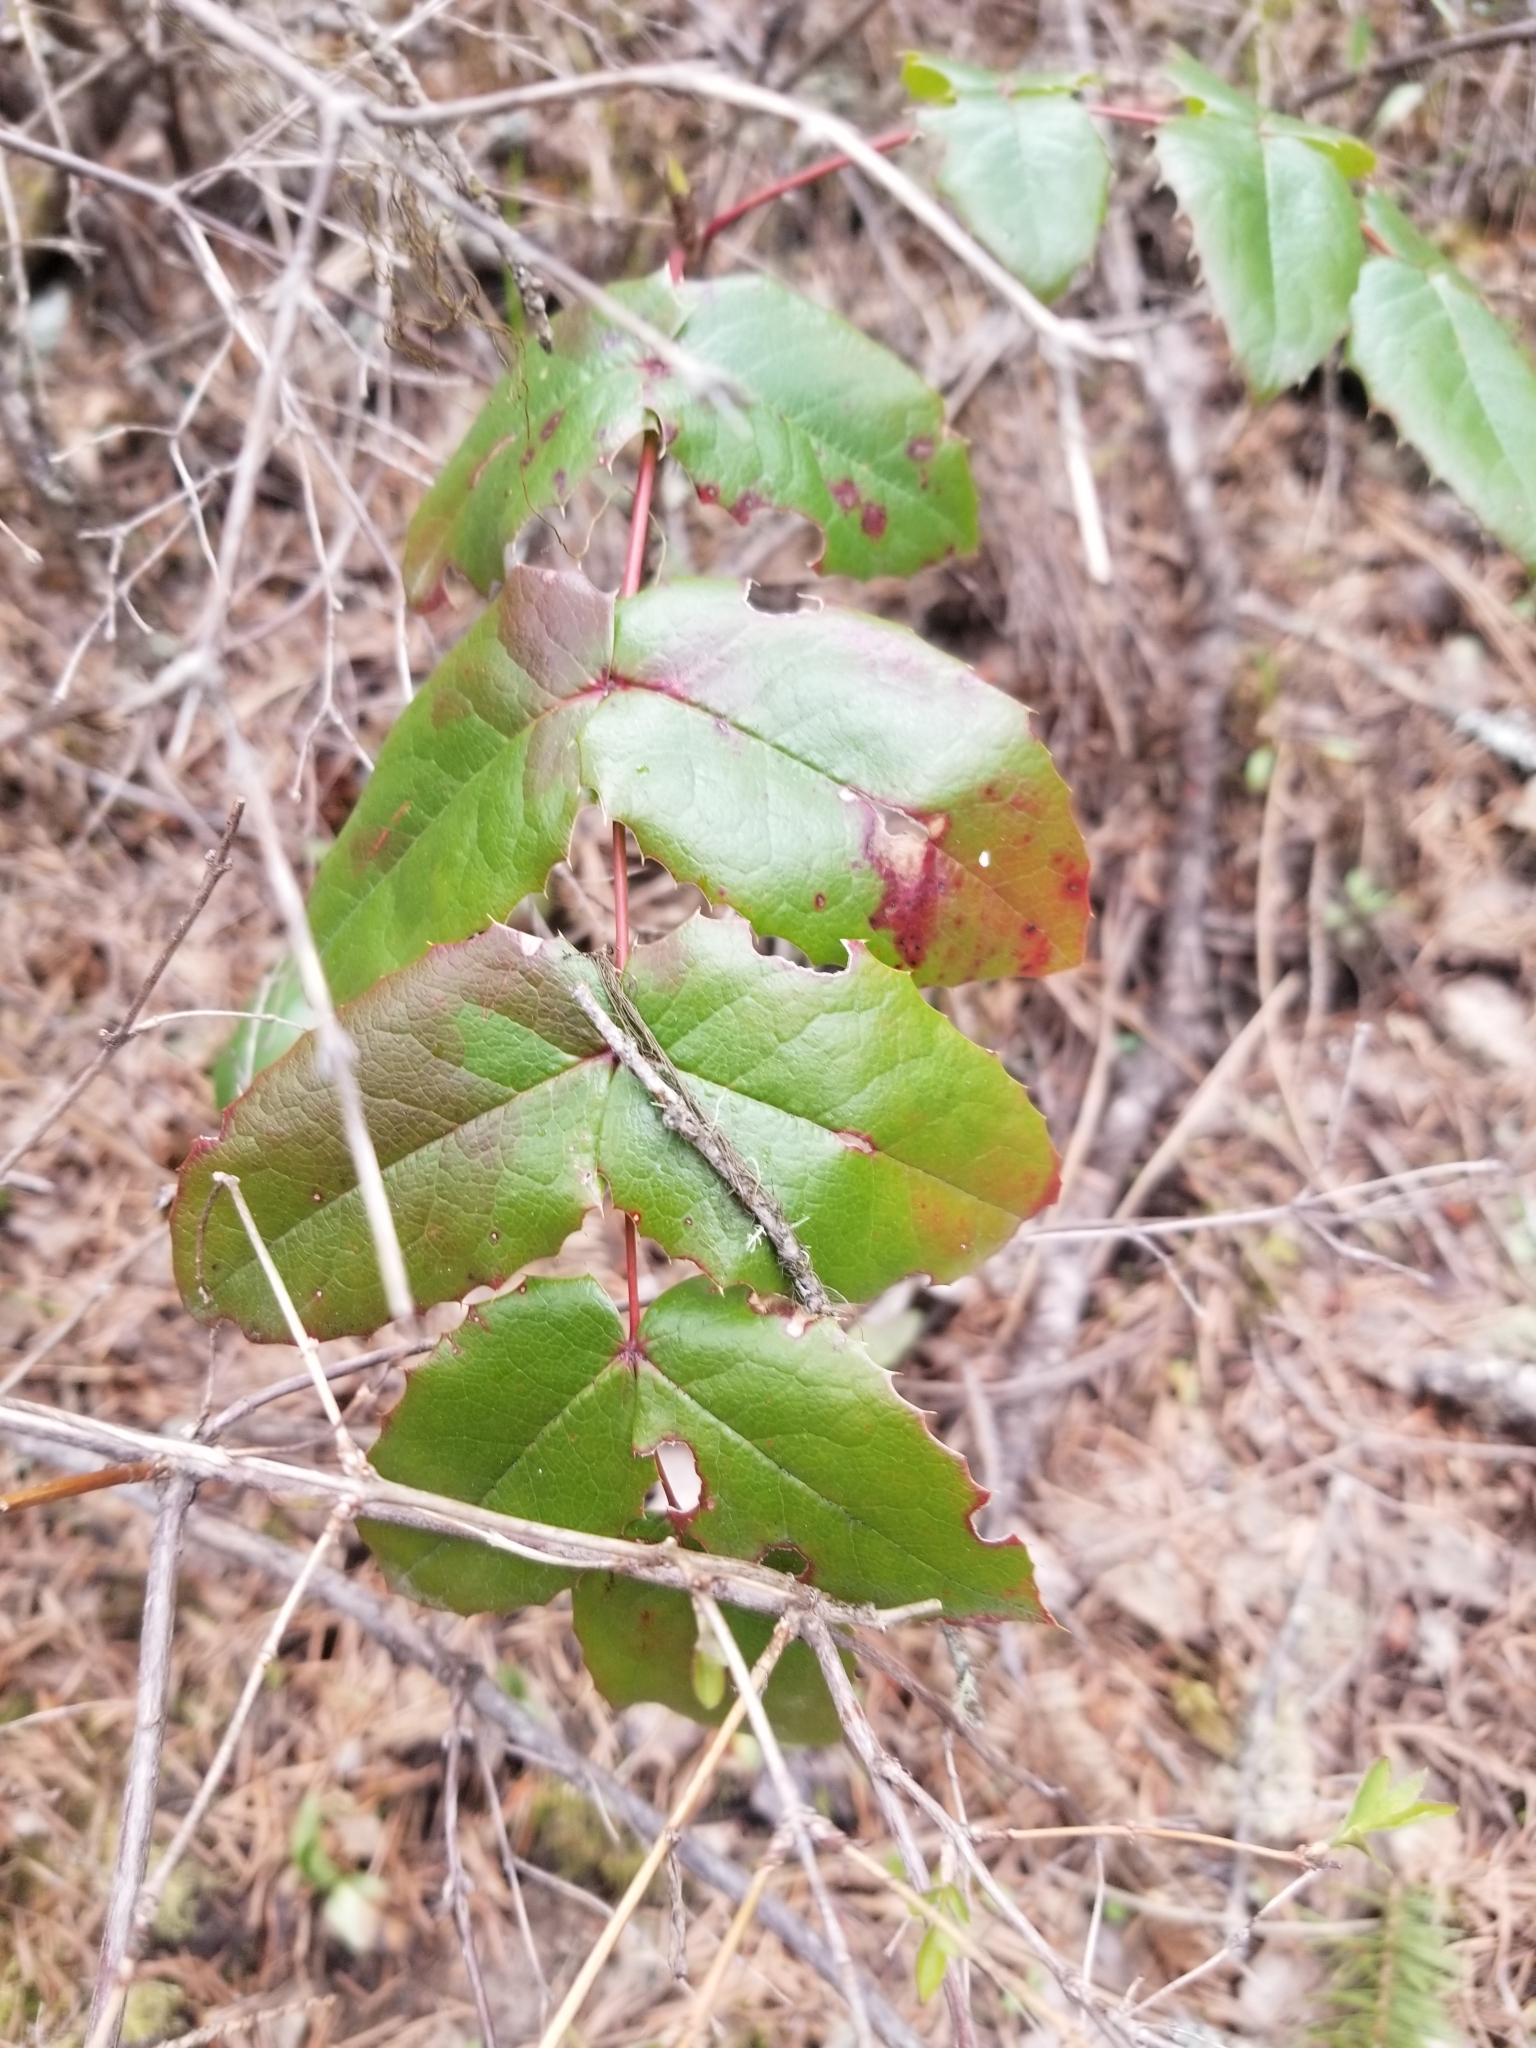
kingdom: Plantae
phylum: Tracheophyta
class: Magnoliopsida
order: Ranunculales
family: Berberidaceae
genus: Mahonia
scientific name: Mahonia aquifolium
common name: Oregon-grape
